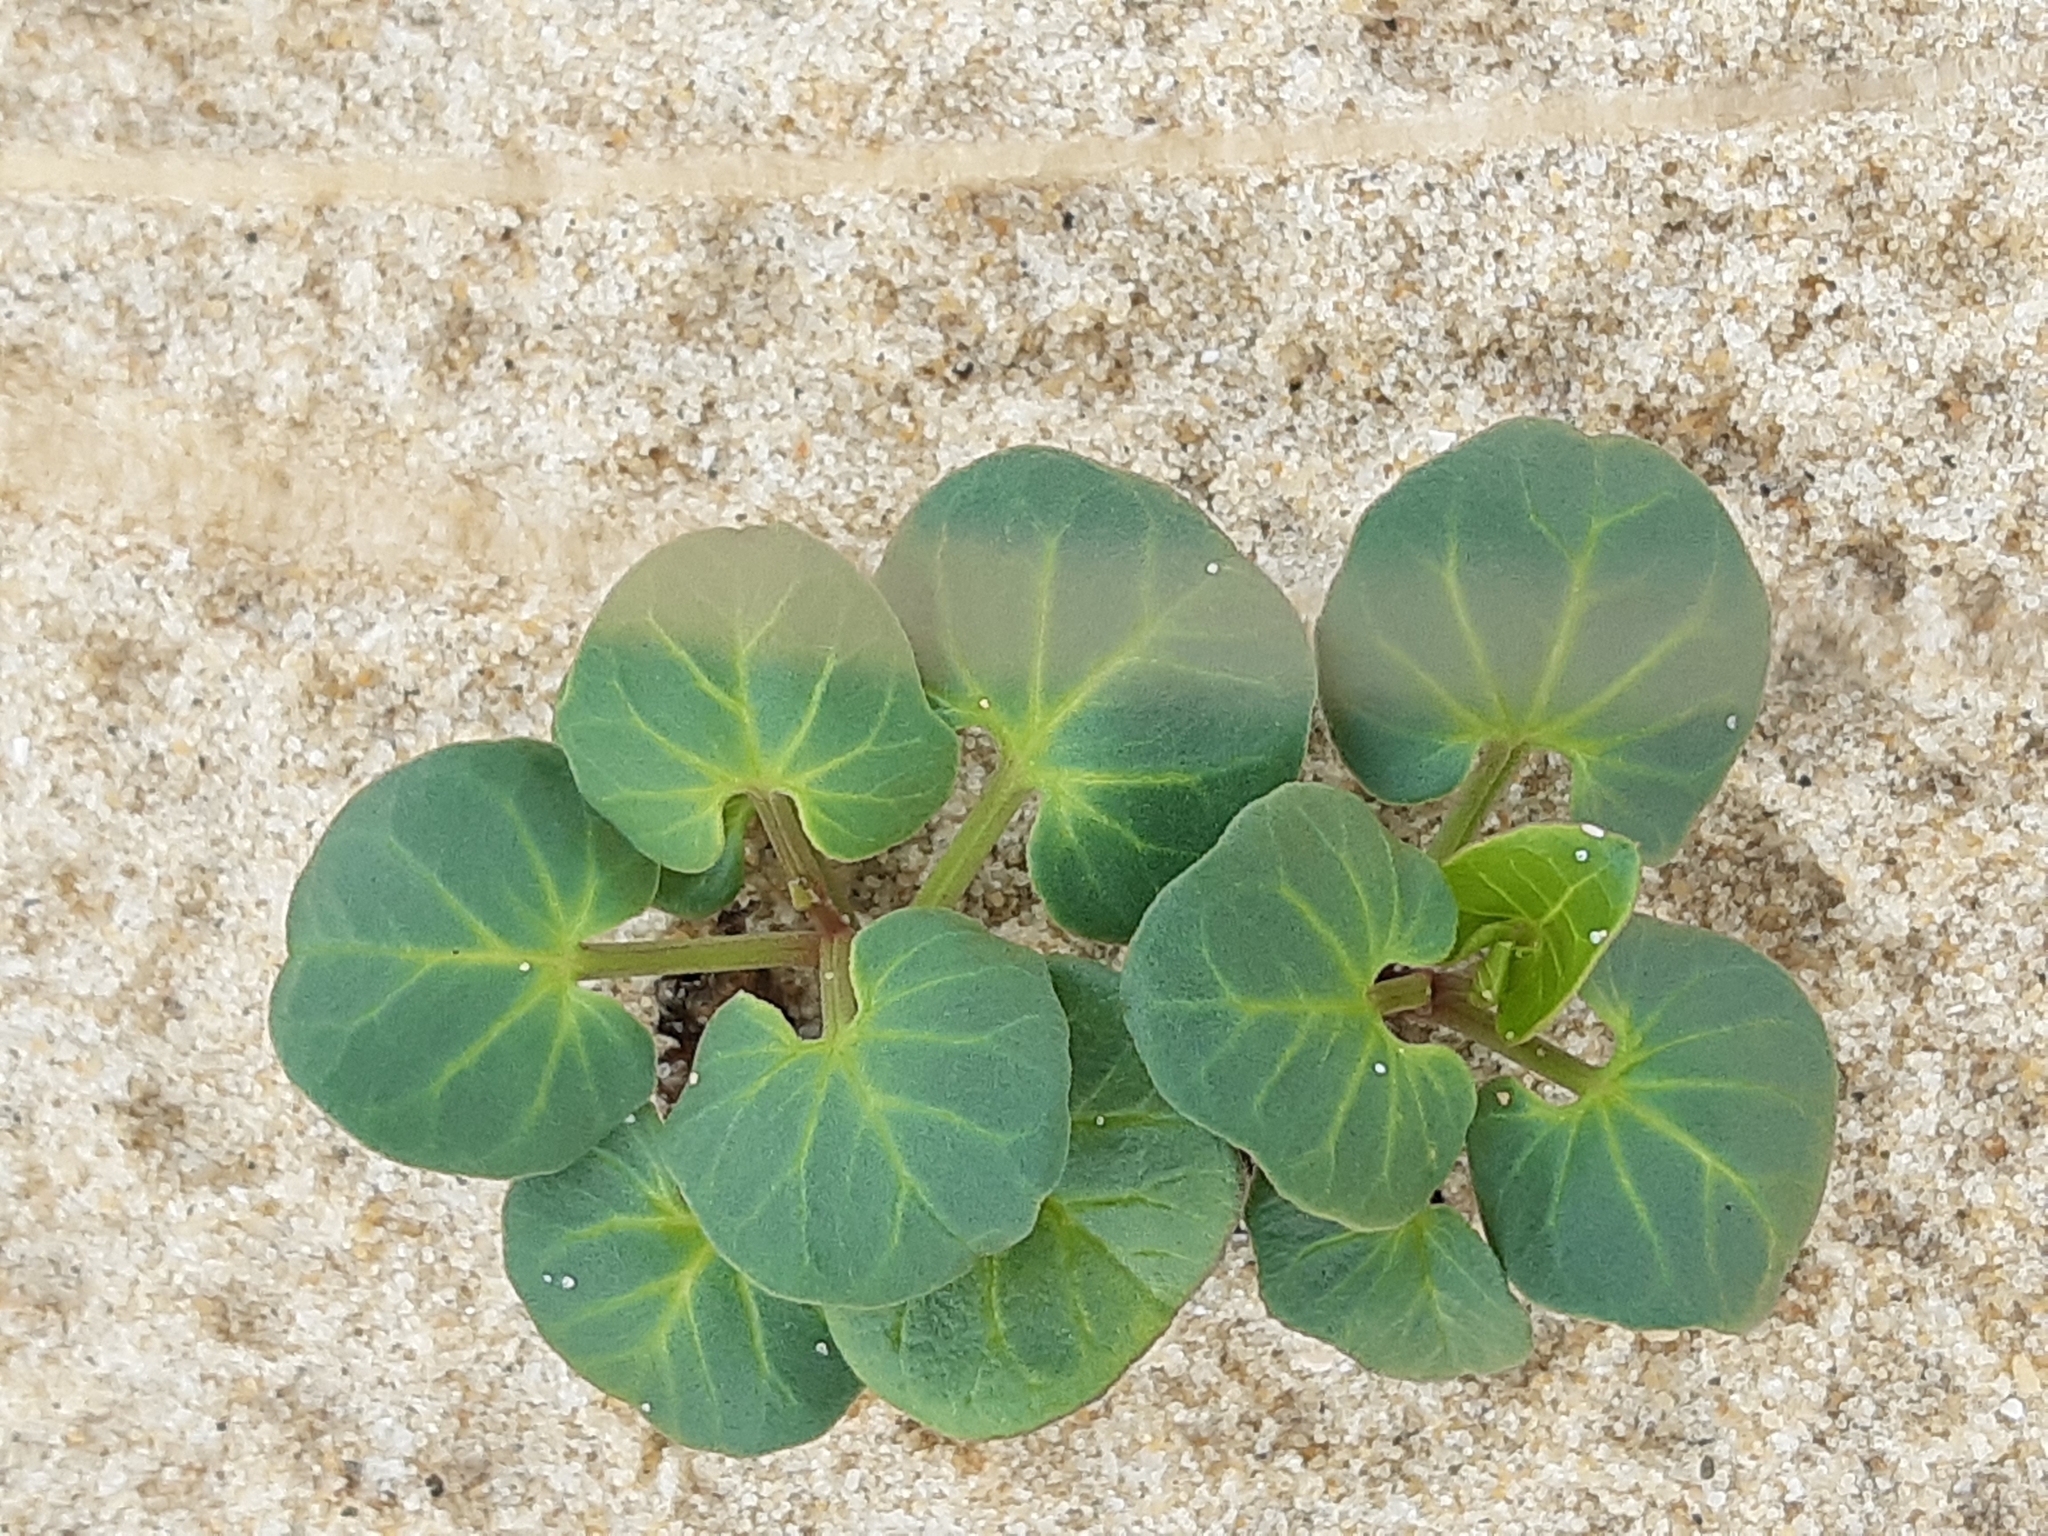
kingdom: Plantae
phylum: Tracheophyta
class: Magnoliopsida
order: Solanales
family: Convolvulaceae
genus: Calystegia
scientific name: Calystegia soldanella
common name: Sea bindweed
